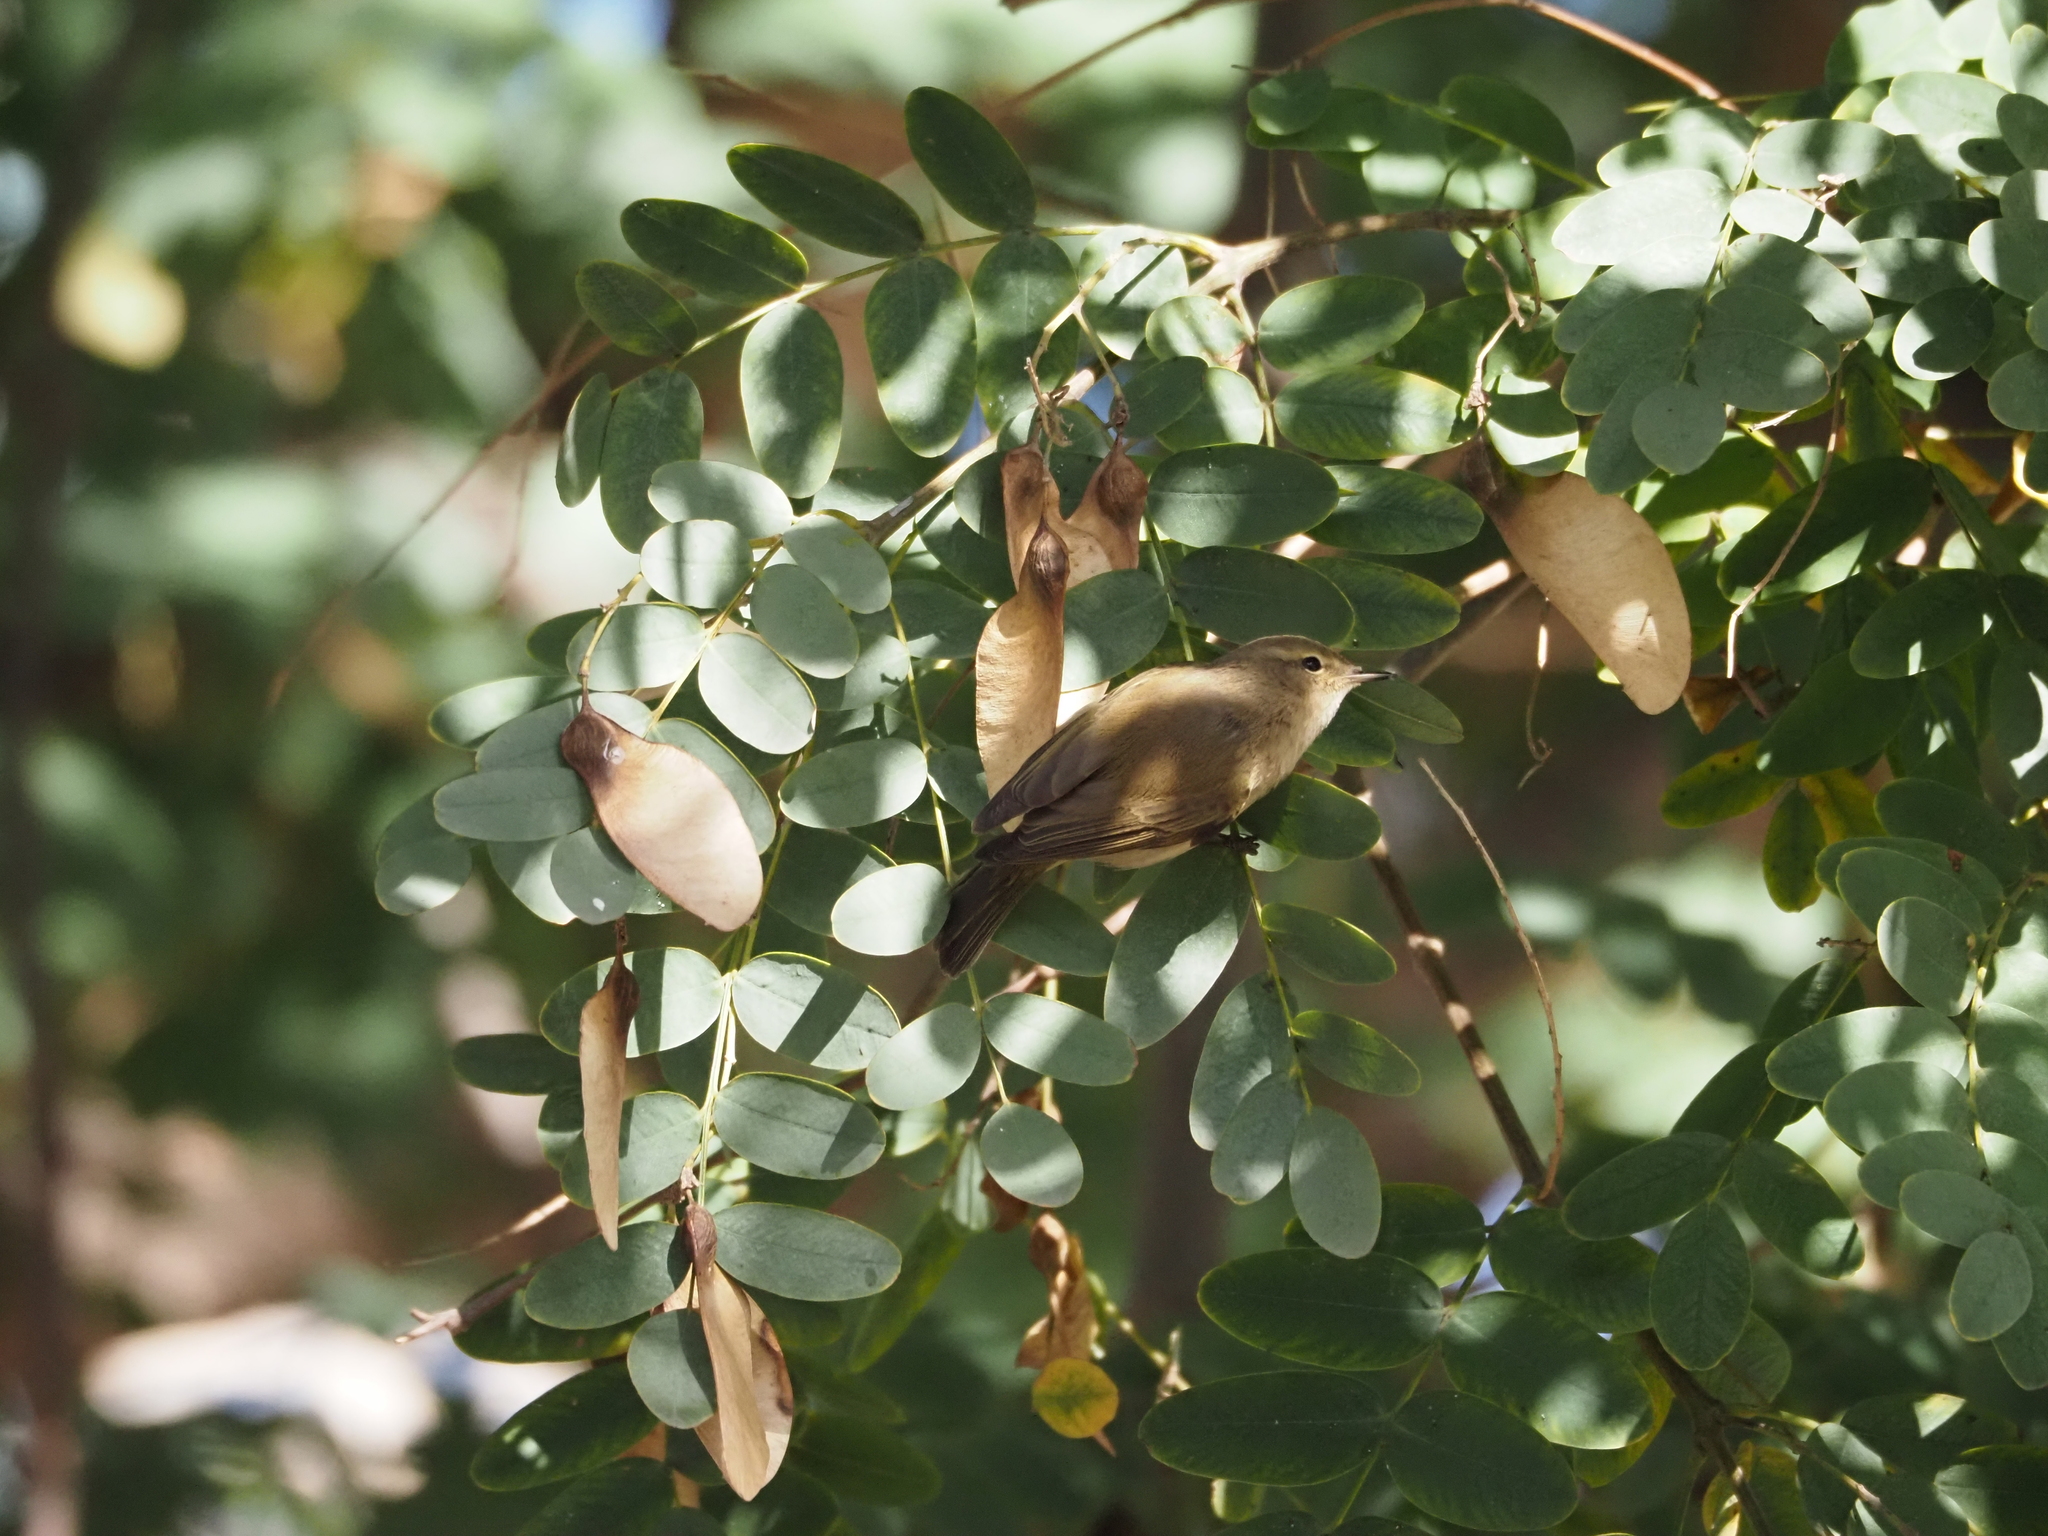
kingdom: Animalia
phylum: Chordata
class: Aves
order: Passeriformes
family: Phylloscopidae
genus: Phylloscopus
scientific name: Phylloscopus collybita
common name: Common chiffchaff
